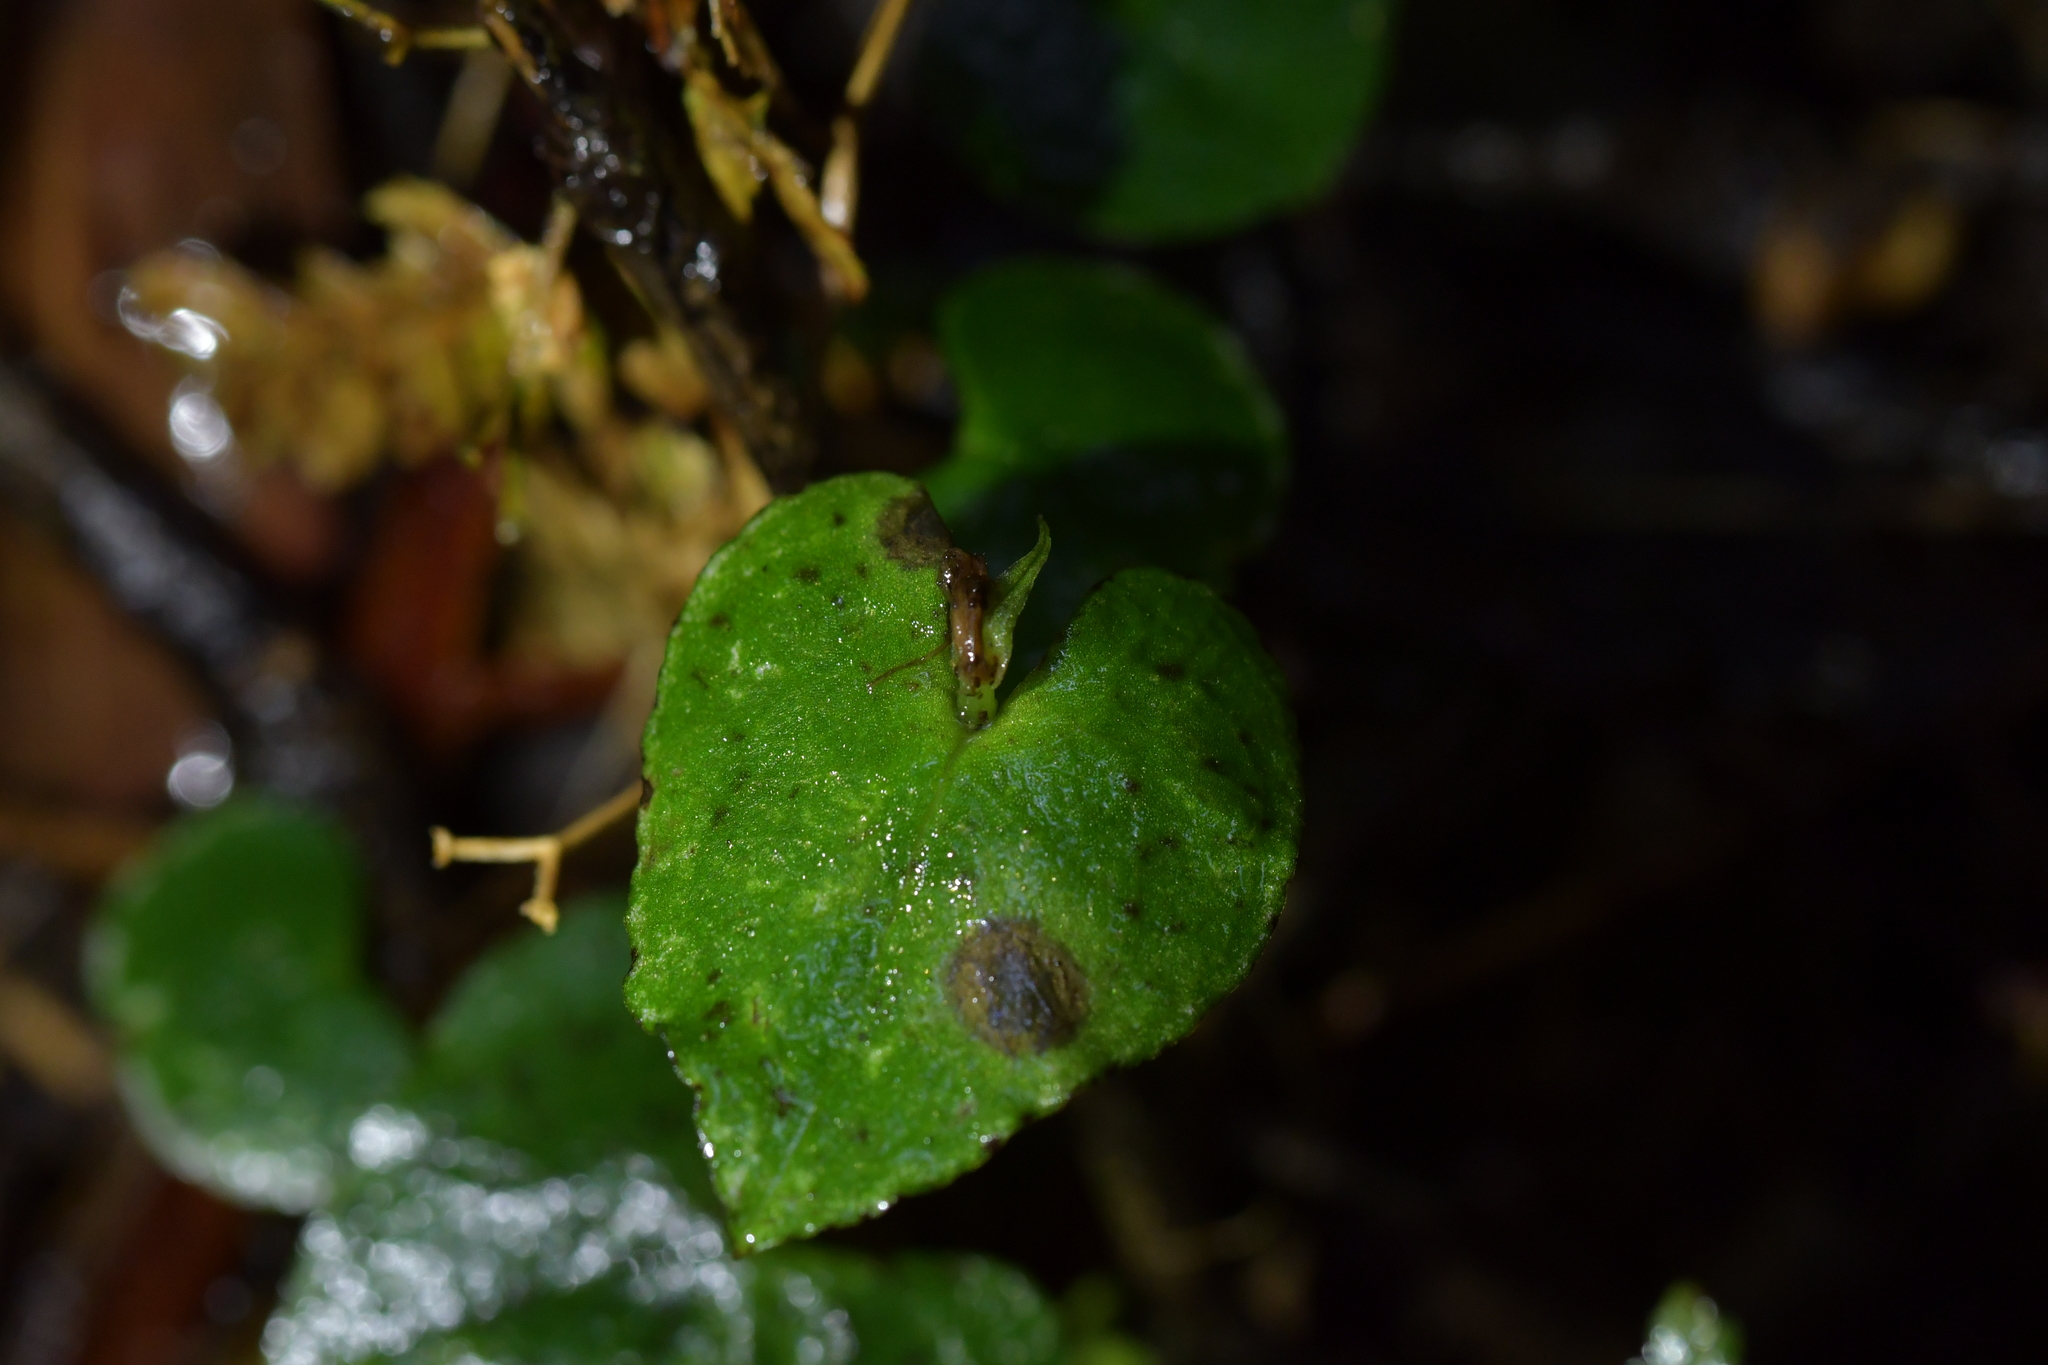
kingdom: Plantae
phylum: Tracheophyta
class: Liliopsida
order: Asparagales
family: Orchidaceae
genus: Corybas
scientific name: Corybas acuminatus
